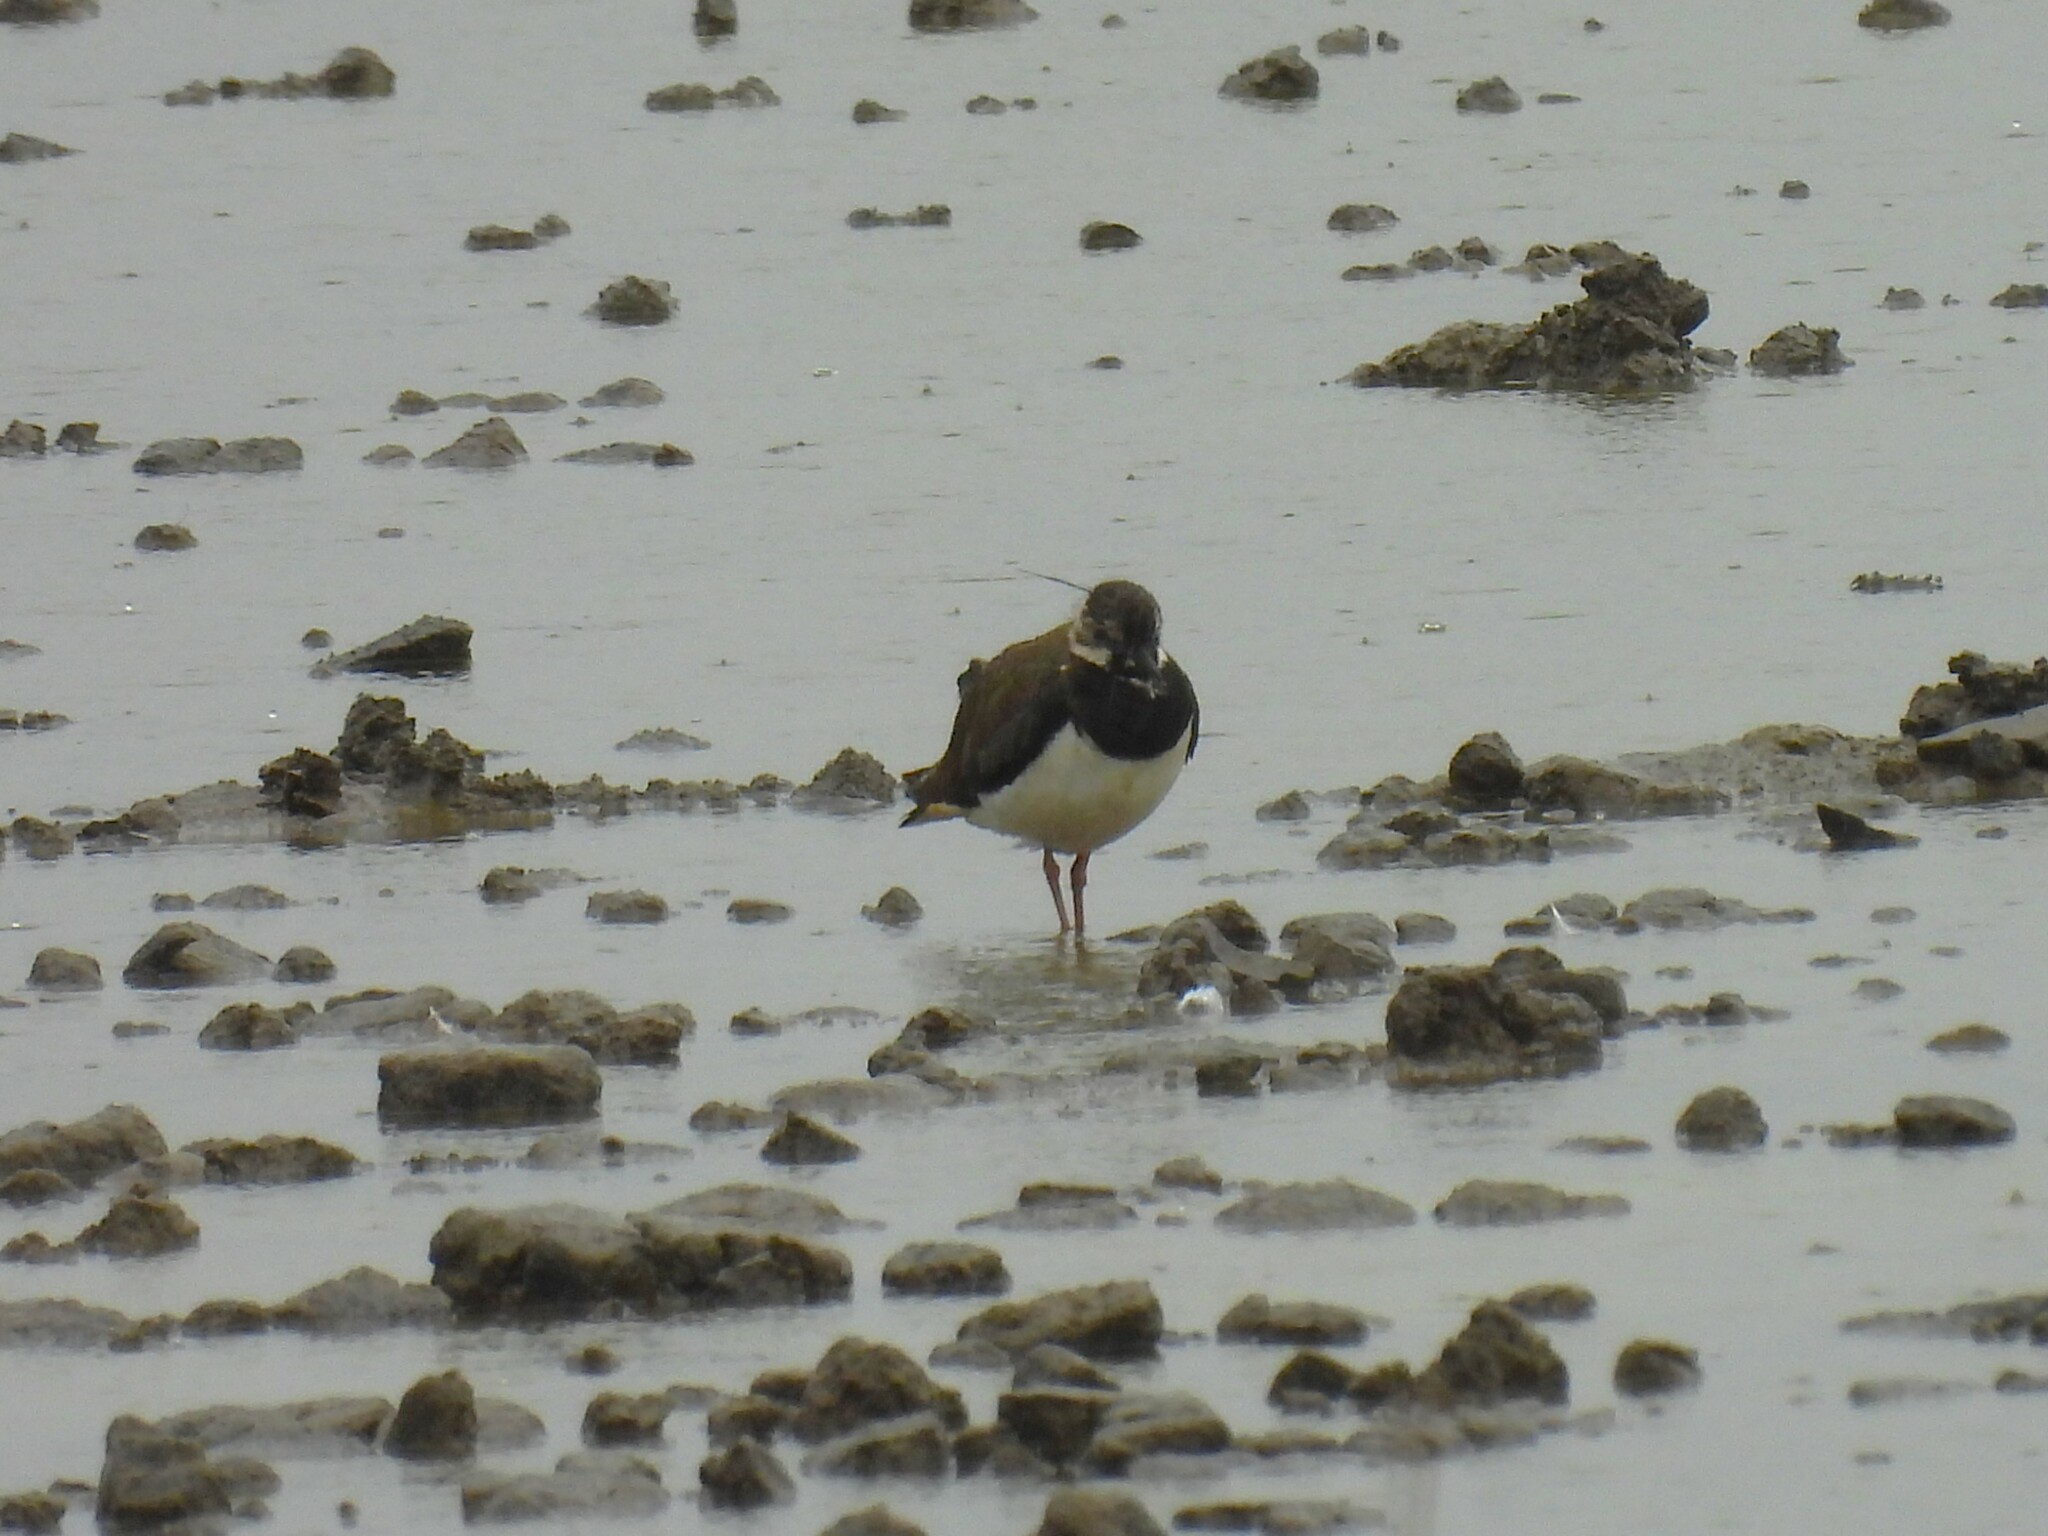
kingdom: Animalia
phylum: Chordata
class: Aves
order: Charadriiformes
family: Charadriidae
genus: Vanellus
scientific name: Vanellus vanellus
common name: Northern lapwing
